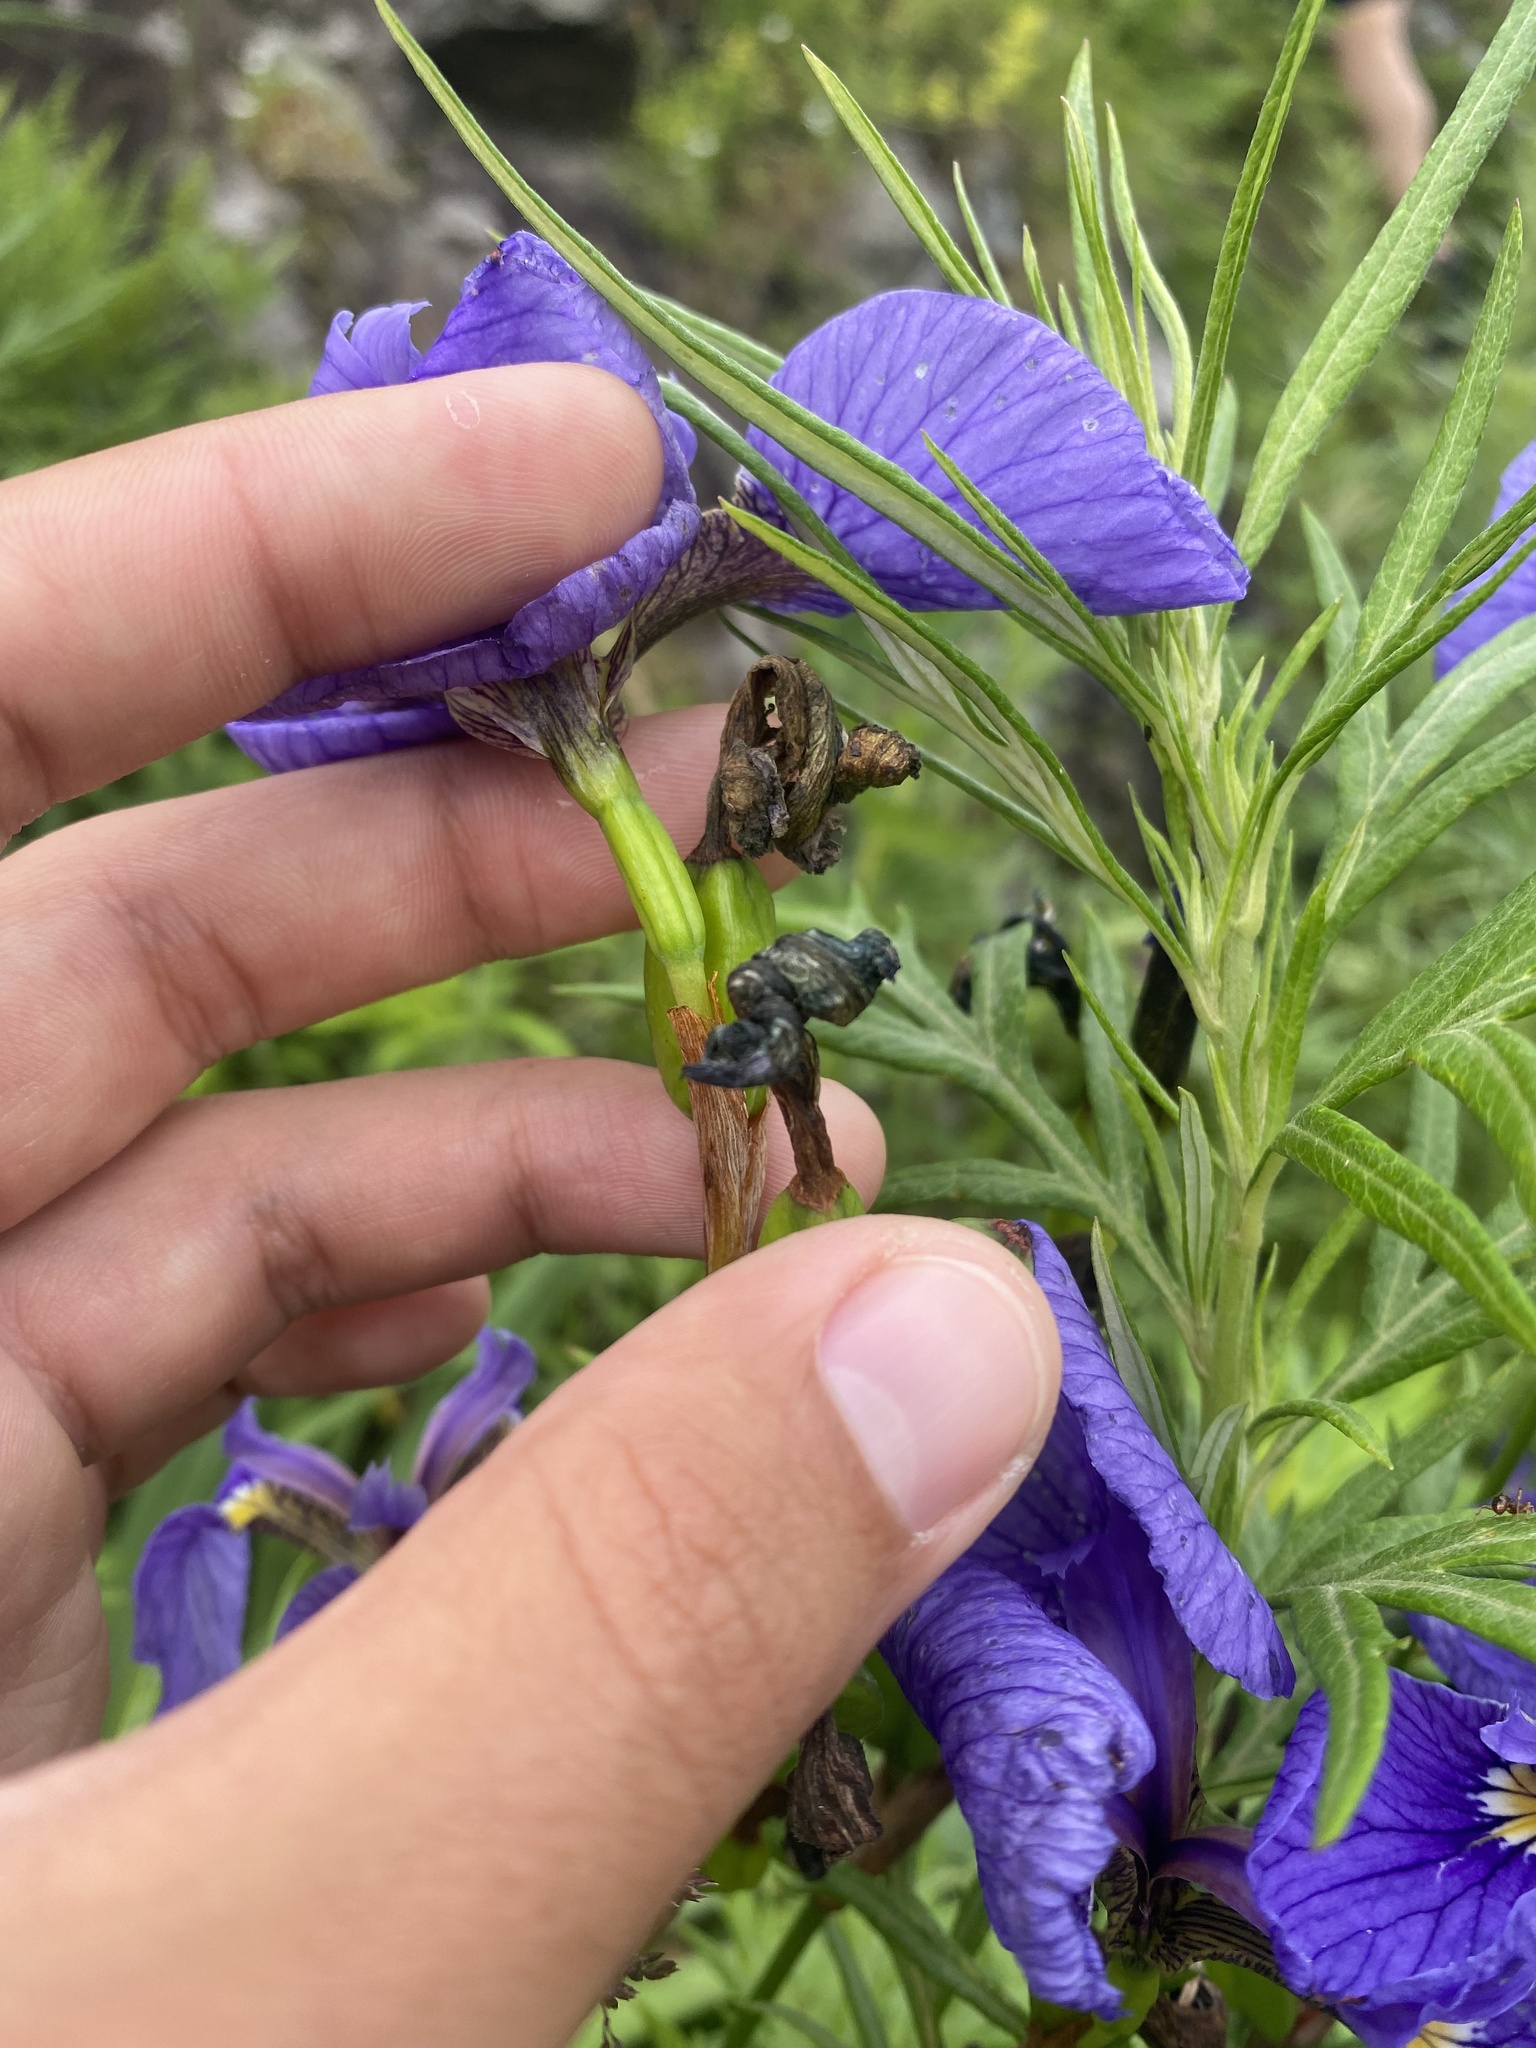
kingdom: Plantae
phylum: Tracheophyta
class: Liliopsida
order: Asparagales
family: Iridaceae
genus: Iris
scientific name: Iris setosa
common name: Arctic blue flag
